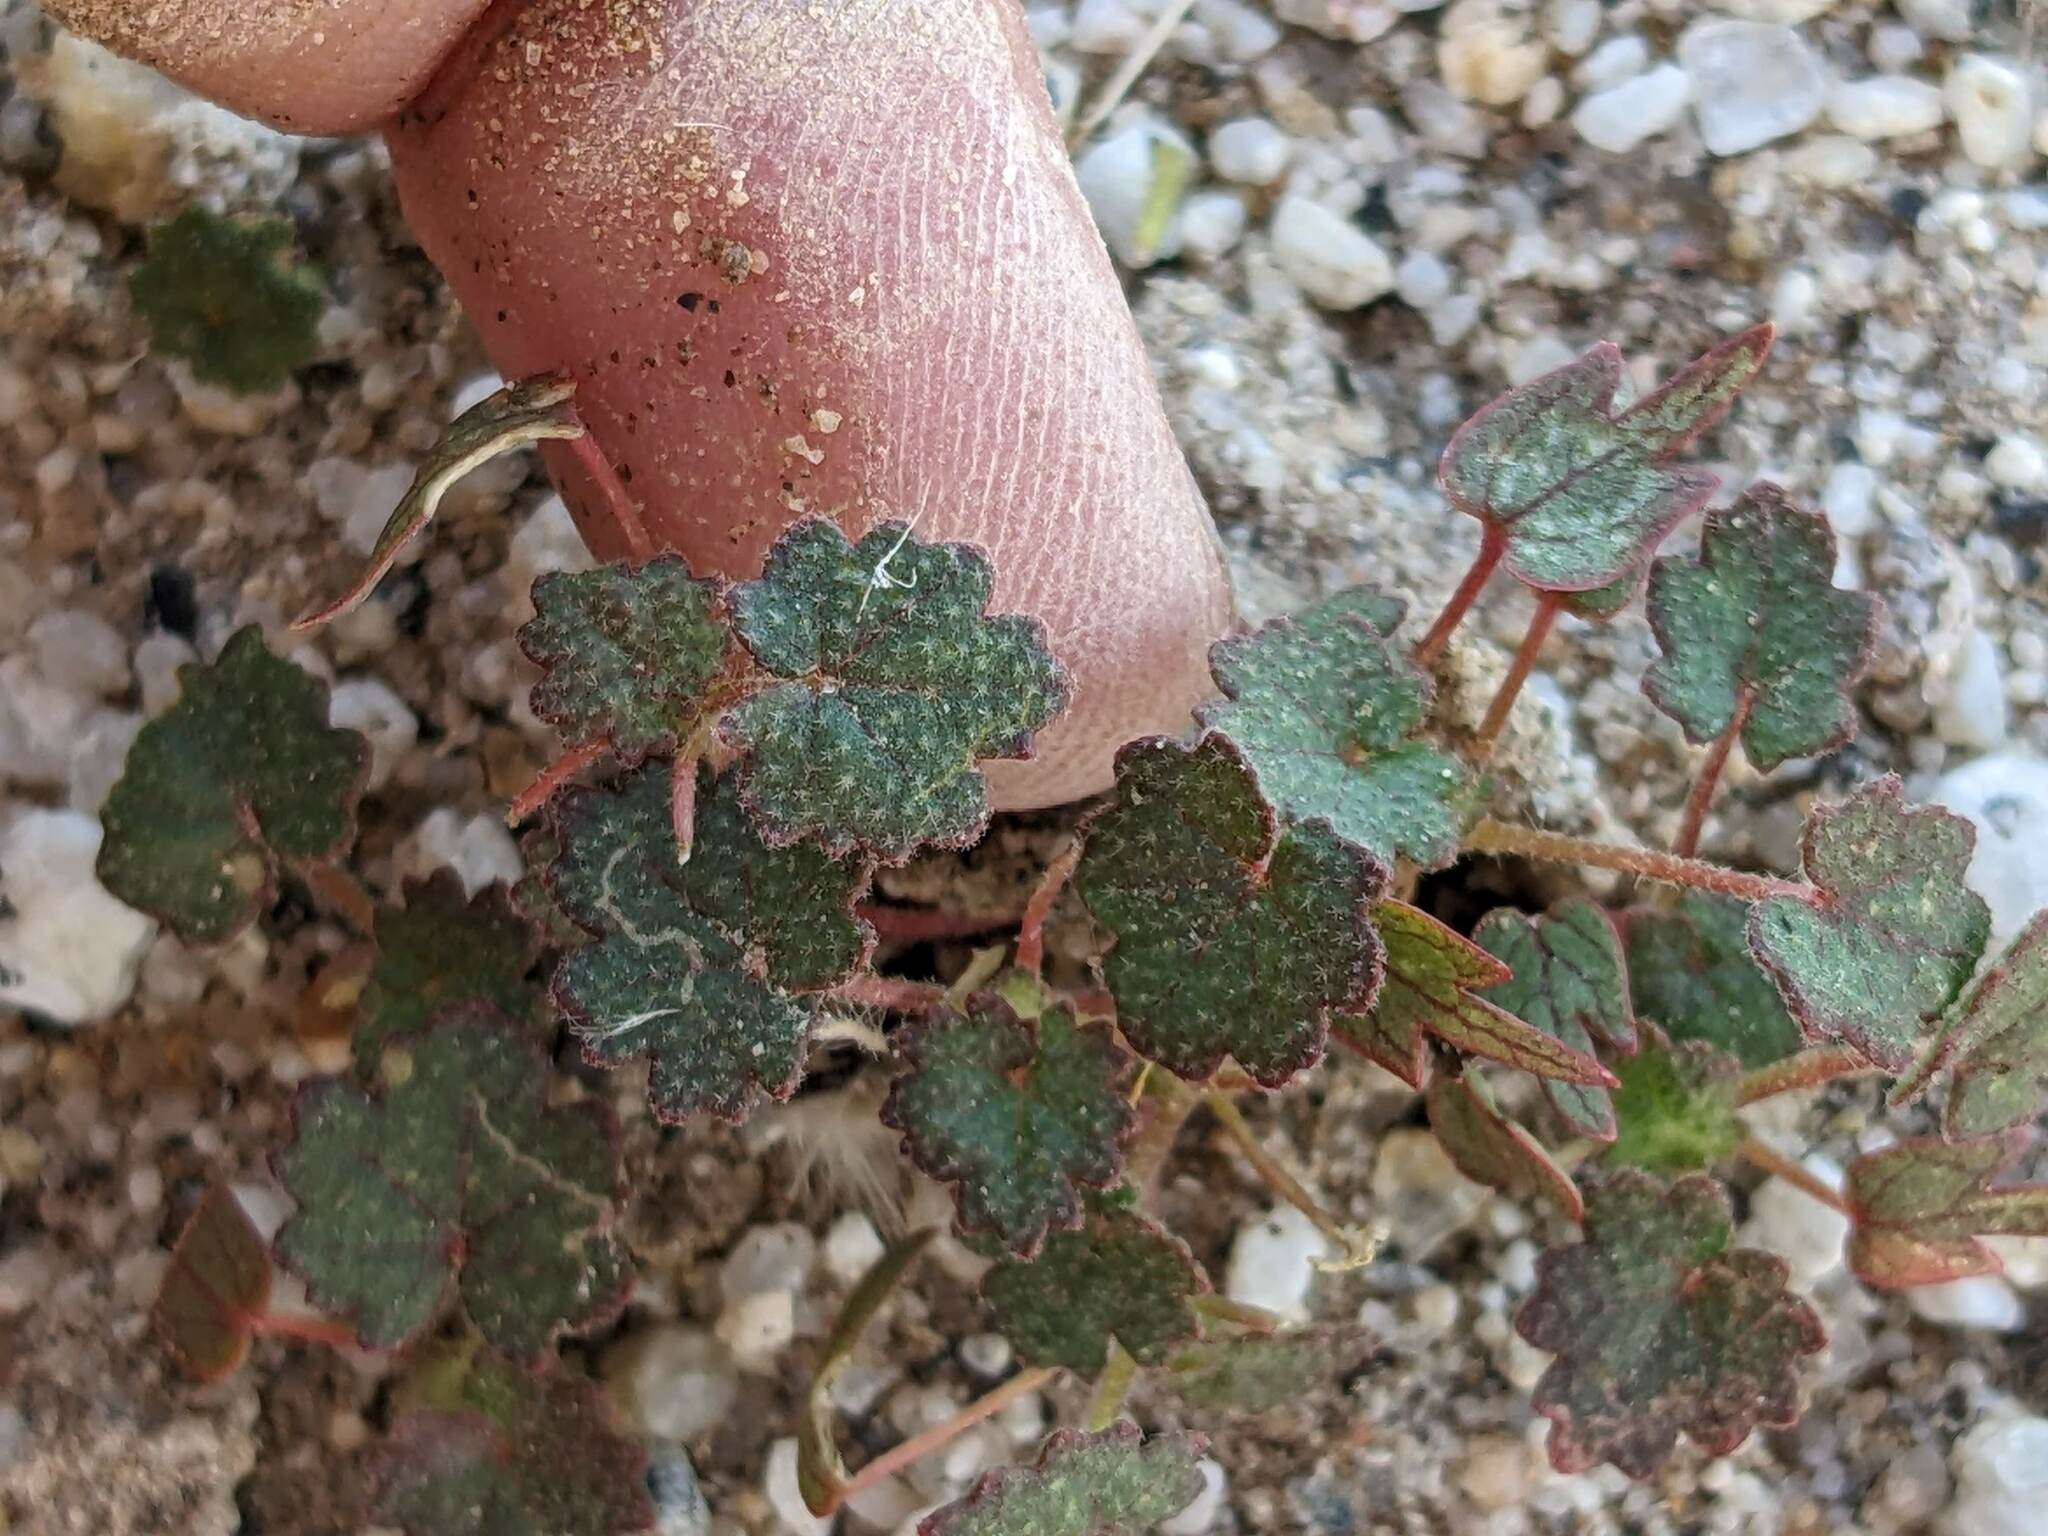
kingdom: Plantae
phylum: Tracheophyta
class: Magnoliopsida
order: Malvales
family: Malvaceae
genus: Eremalche
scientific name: Eremalche rotundifolia
